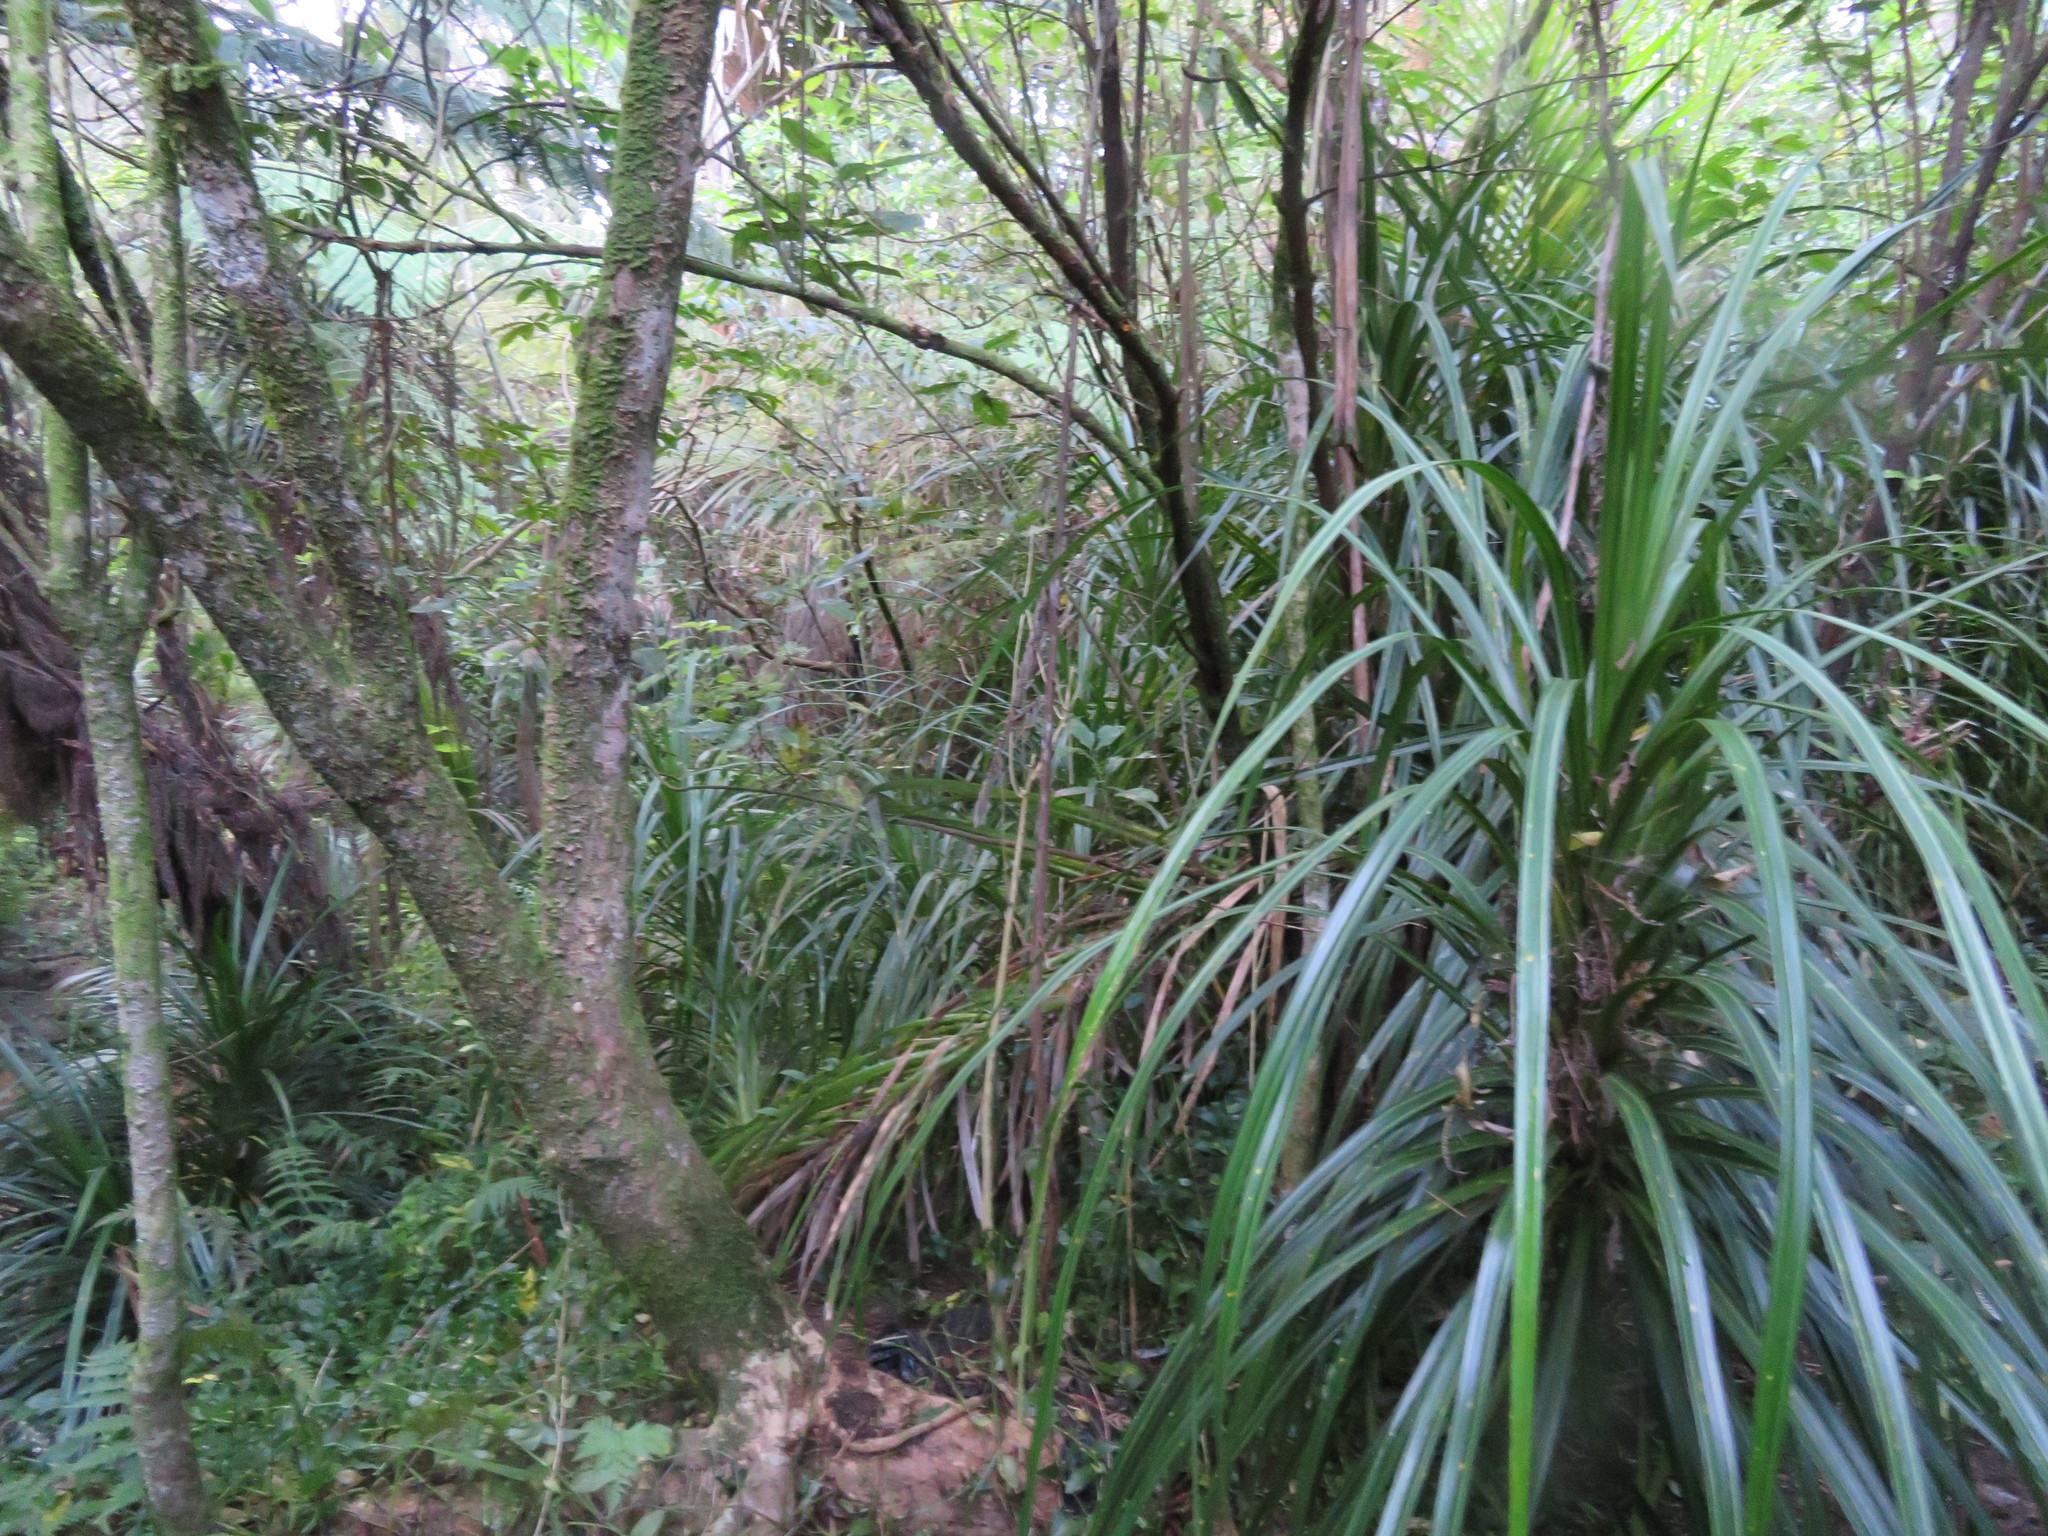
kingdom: Plantae
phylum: Tracheophyta
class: Liliopsida
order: Pandanales
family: Pandanaceae
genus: Freycinetia
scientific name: Freycinetia banksii
